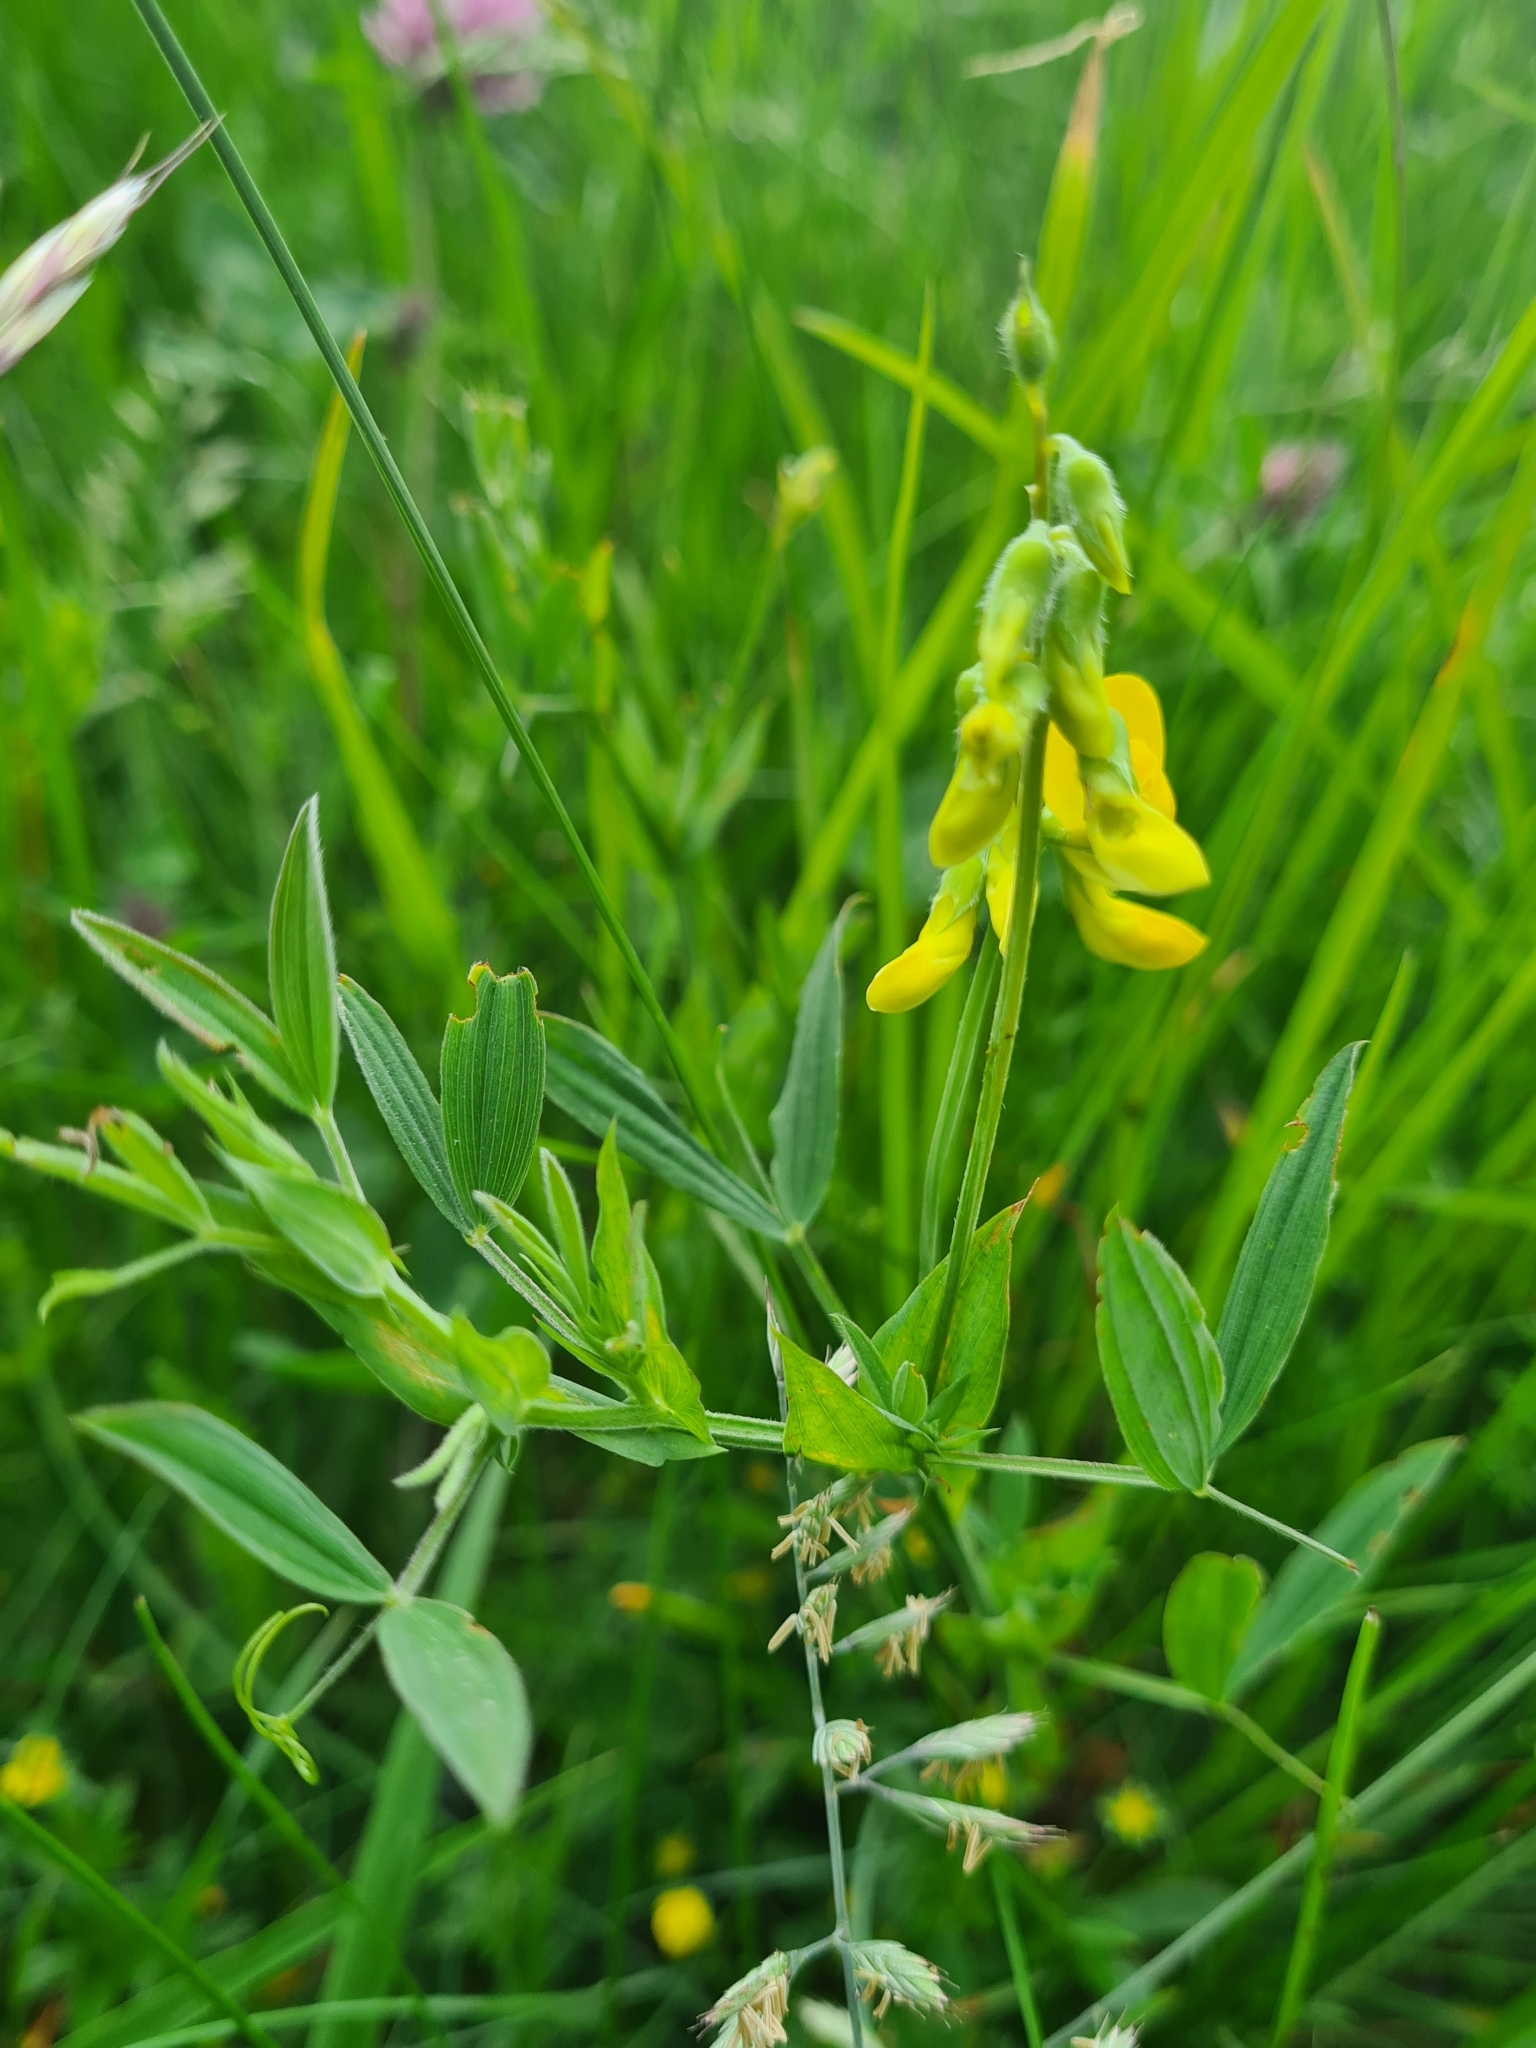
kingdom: Plantae
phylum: Tracheophyta
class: Magnoliopsida
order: Fabales
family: Fabaceae
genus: Lathyrus
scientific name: Lathyrus pratensis
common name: Meadow vetchling
